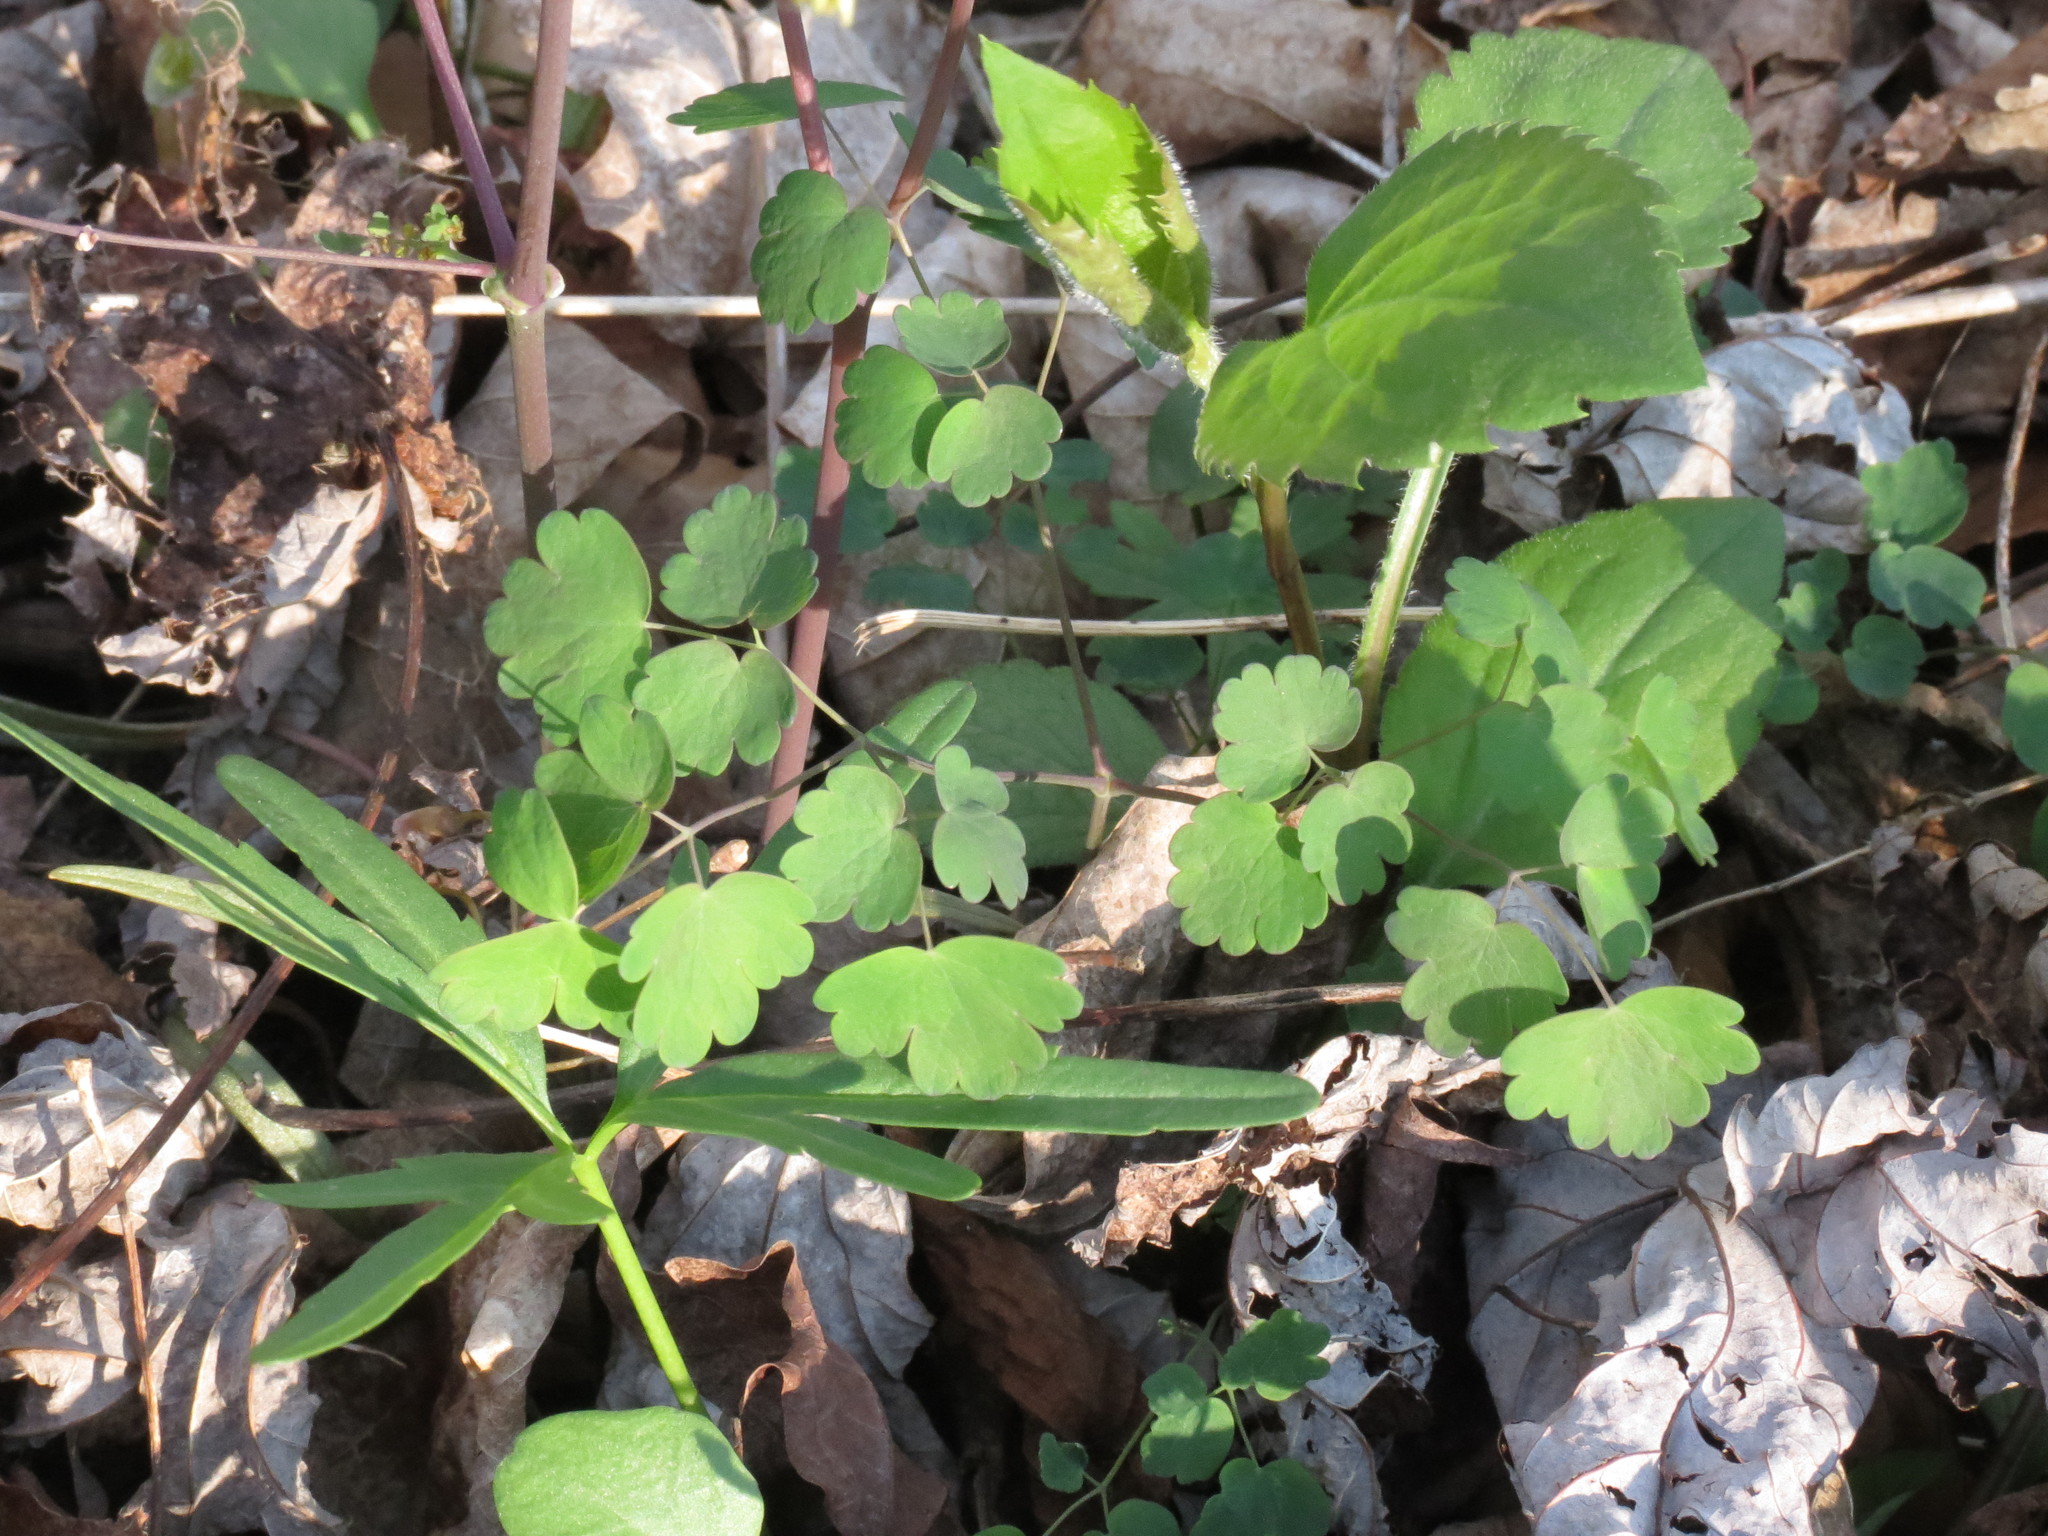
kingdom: Plantae
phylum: Tracheophyta
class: Magnoliopsida
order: Ranunculales
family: Ranunculaceae
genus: Thalictrum
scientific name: Thalictrum dioicum
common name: Early meadow-rue
